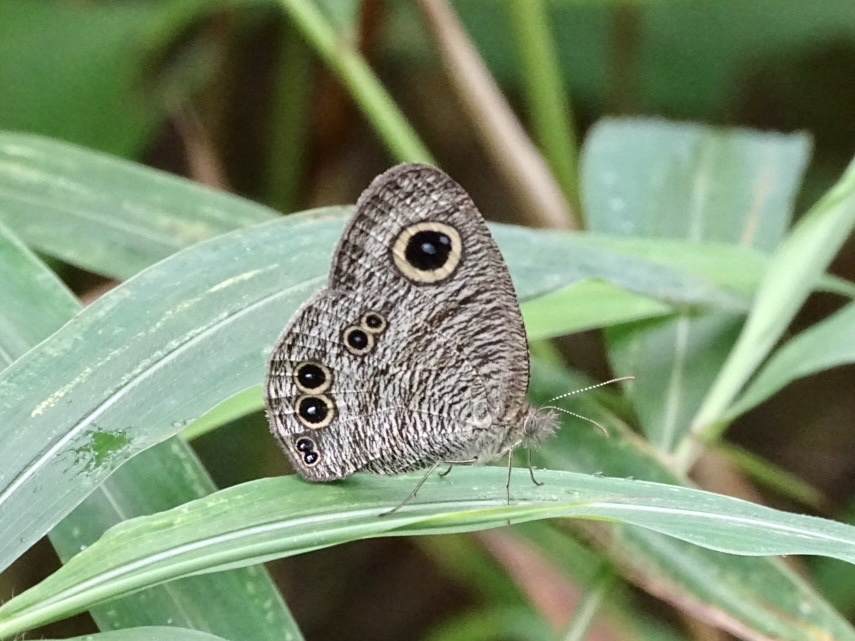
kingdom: Animalia
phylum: Arthropoda
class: Insecta
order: Lepidoptera
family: Nymphalidae
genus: Ypthima
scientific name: Ypthima baldus
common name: Common five-ring
